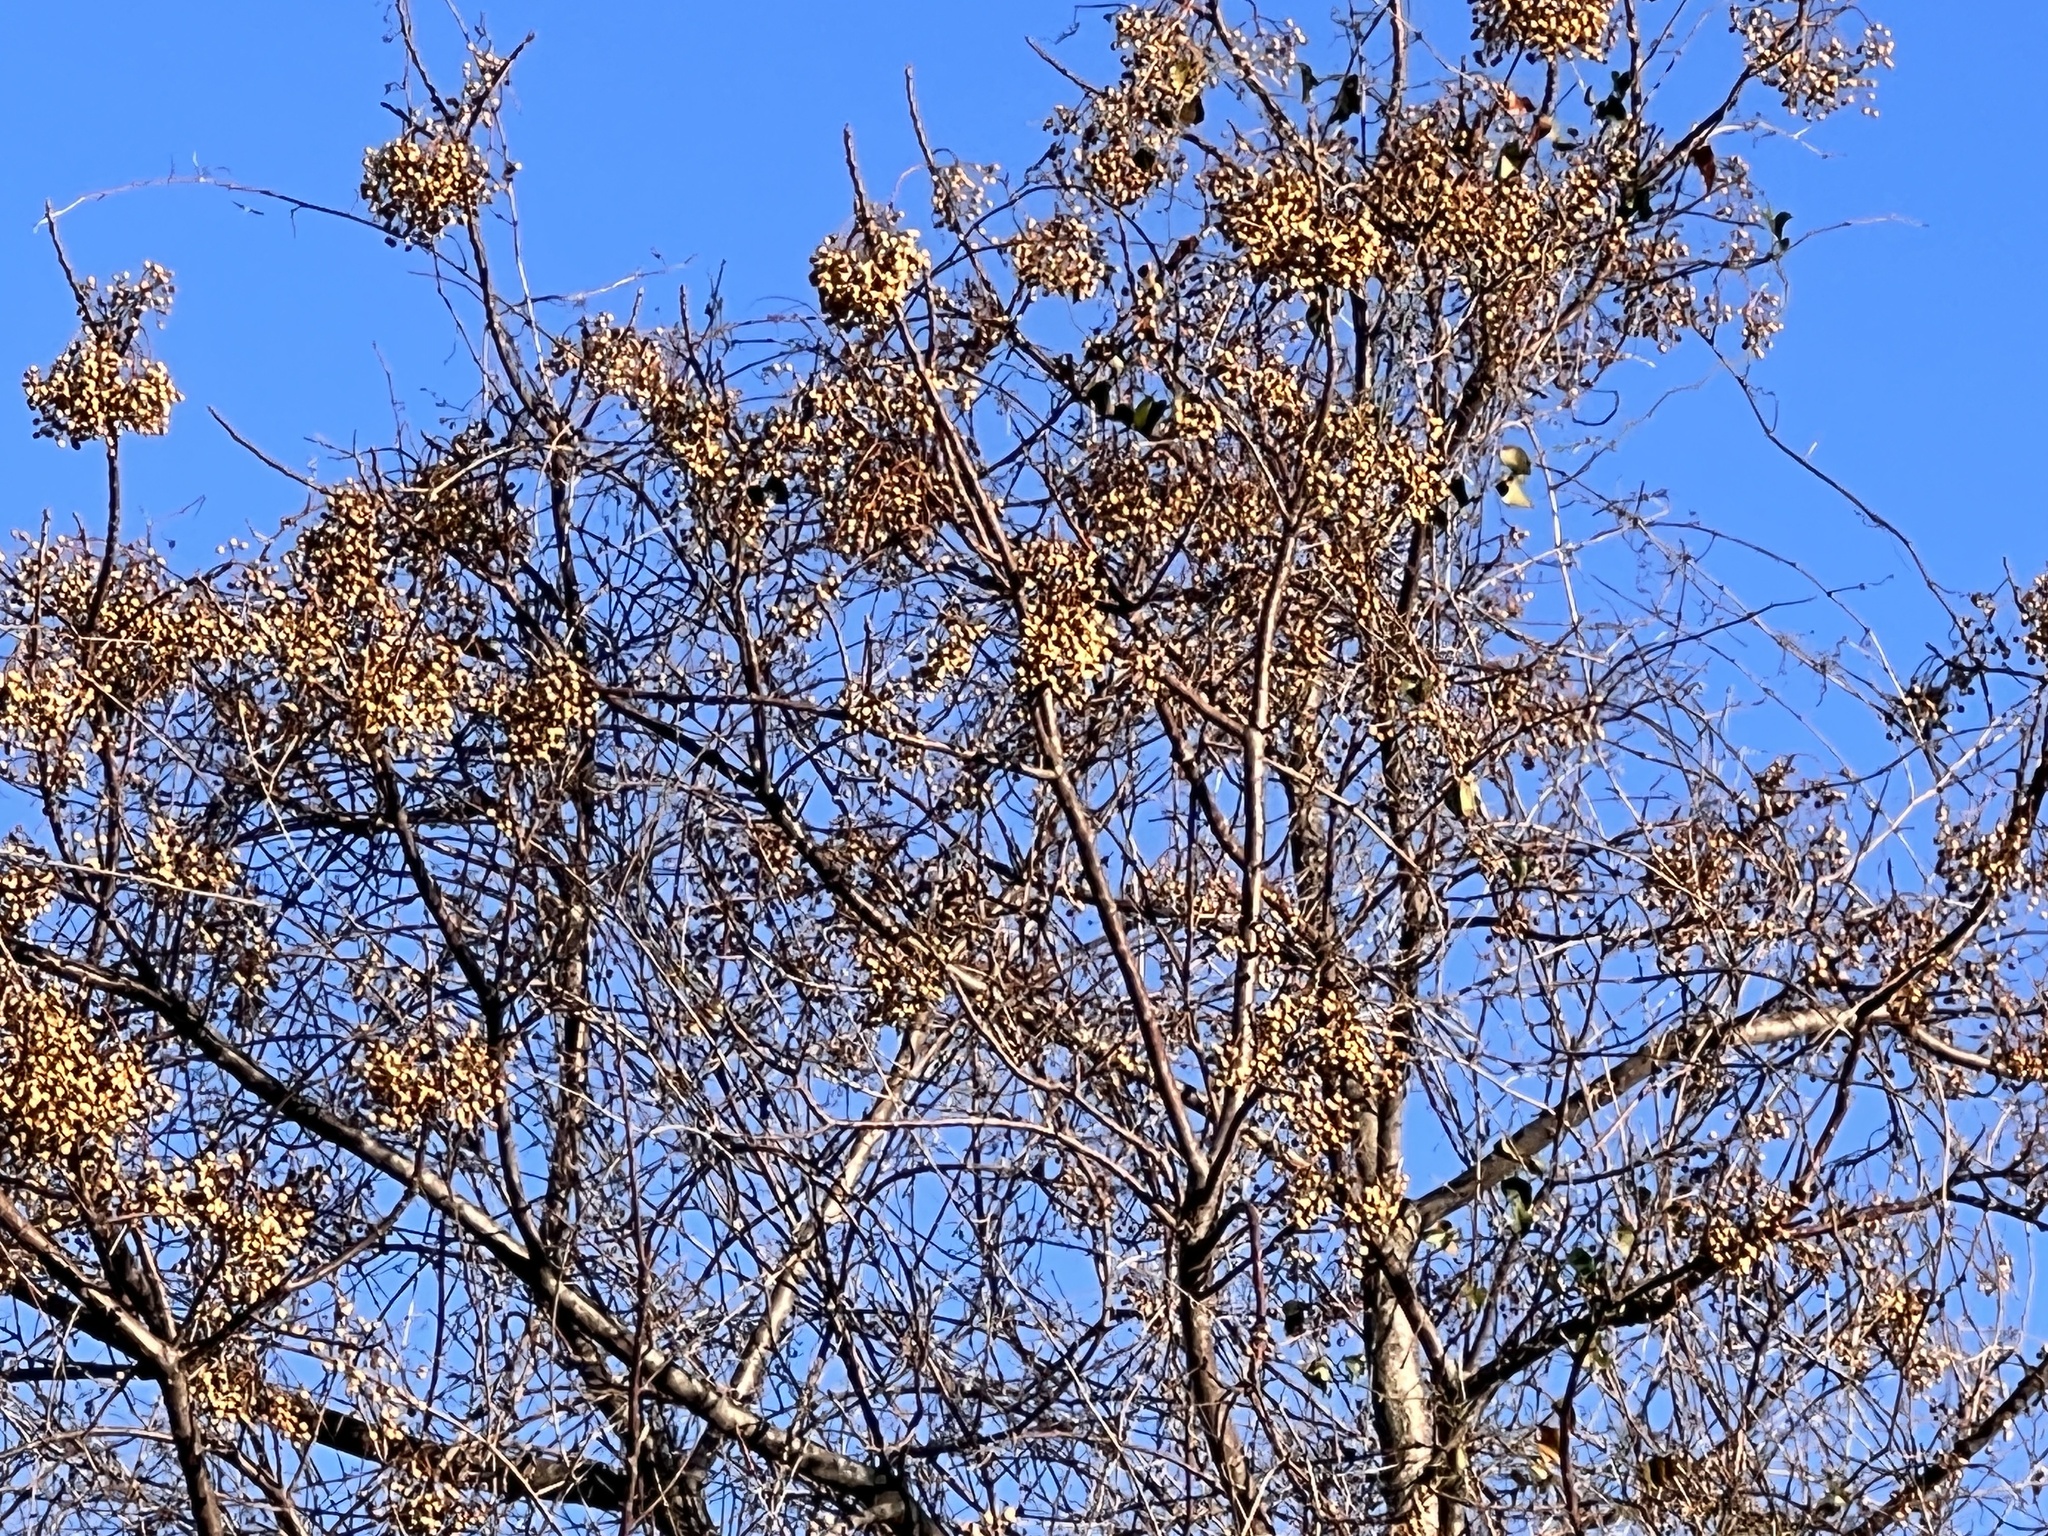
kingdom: Plantae
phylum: Tracheophyta
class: Magnoliopsida
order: Sapindales
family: Meliaceae
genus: Melia
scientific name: Melia azedarach
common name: Chinaberrytree
